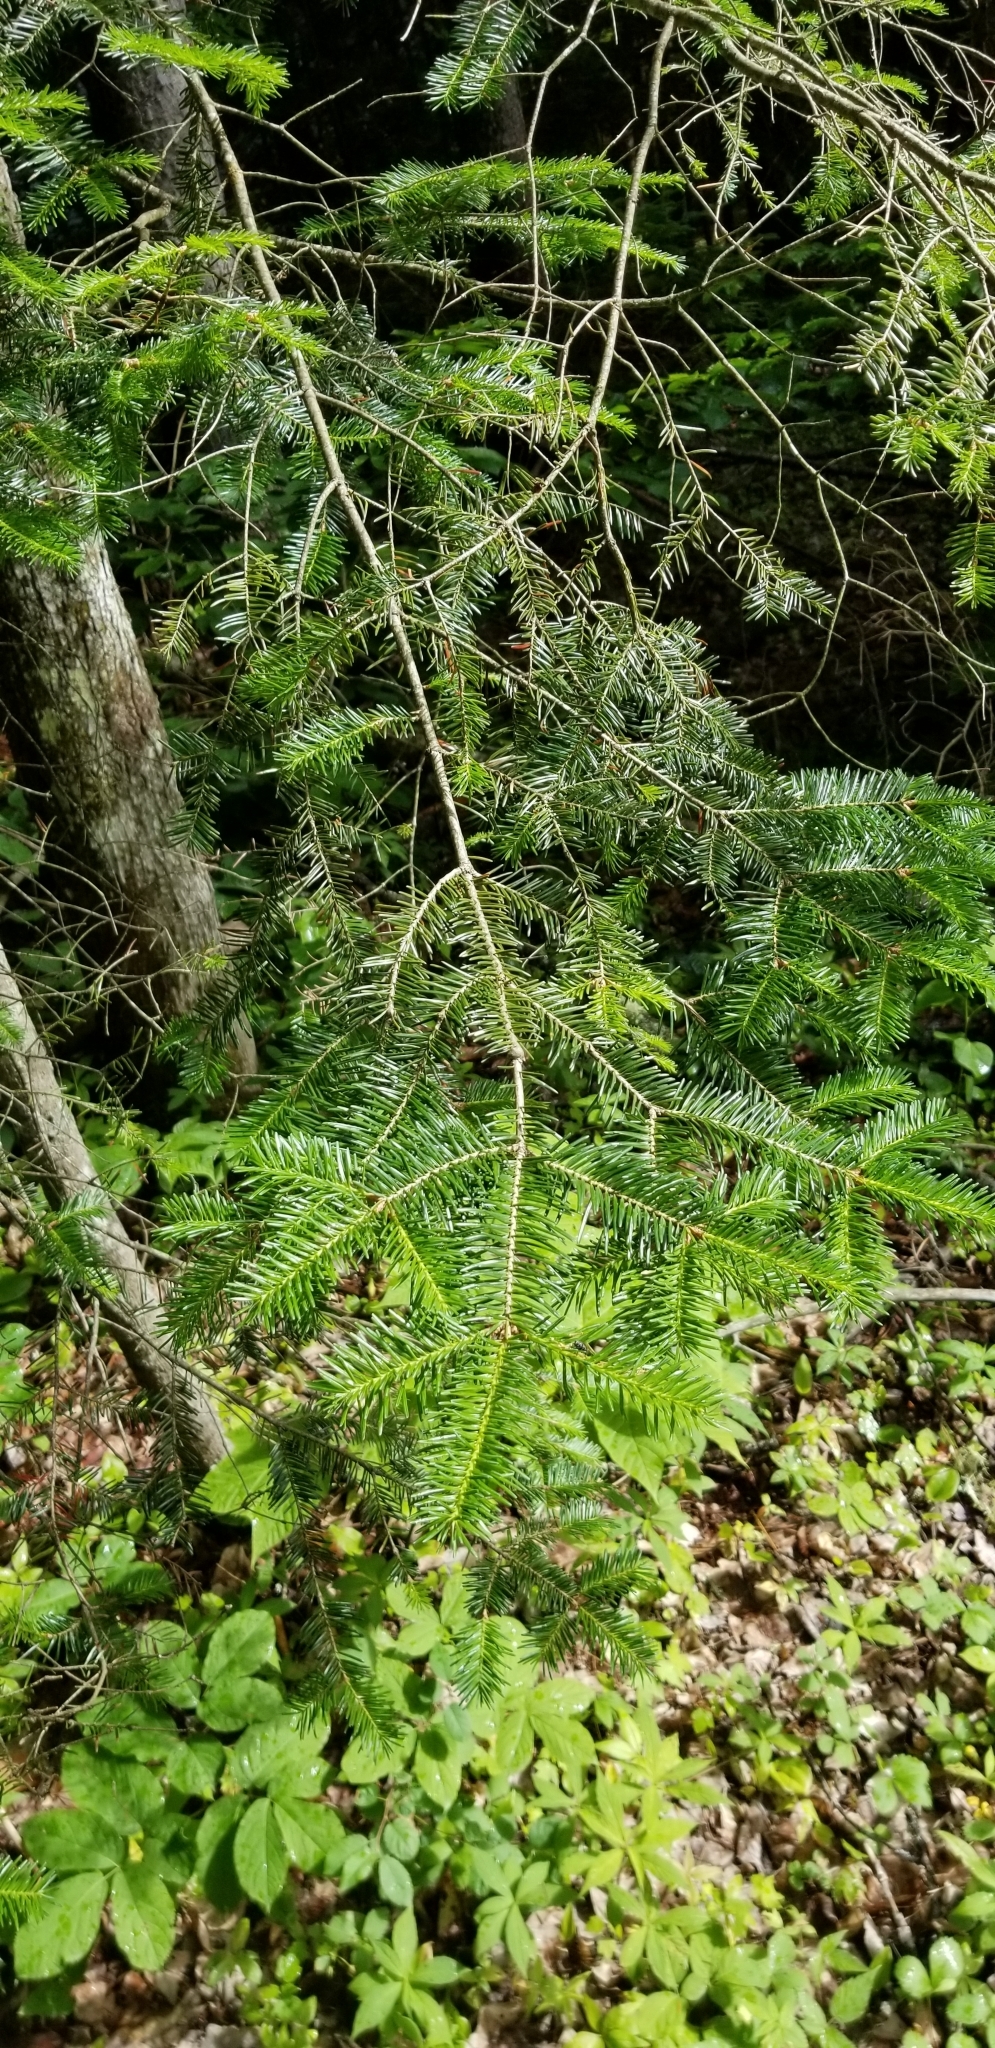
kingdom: Plantae
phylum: Tracheophyta
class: Pinopsida
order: Pinales
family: Pinaceae
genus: Abies
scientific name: Abies balsamea
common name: Balsam fir
